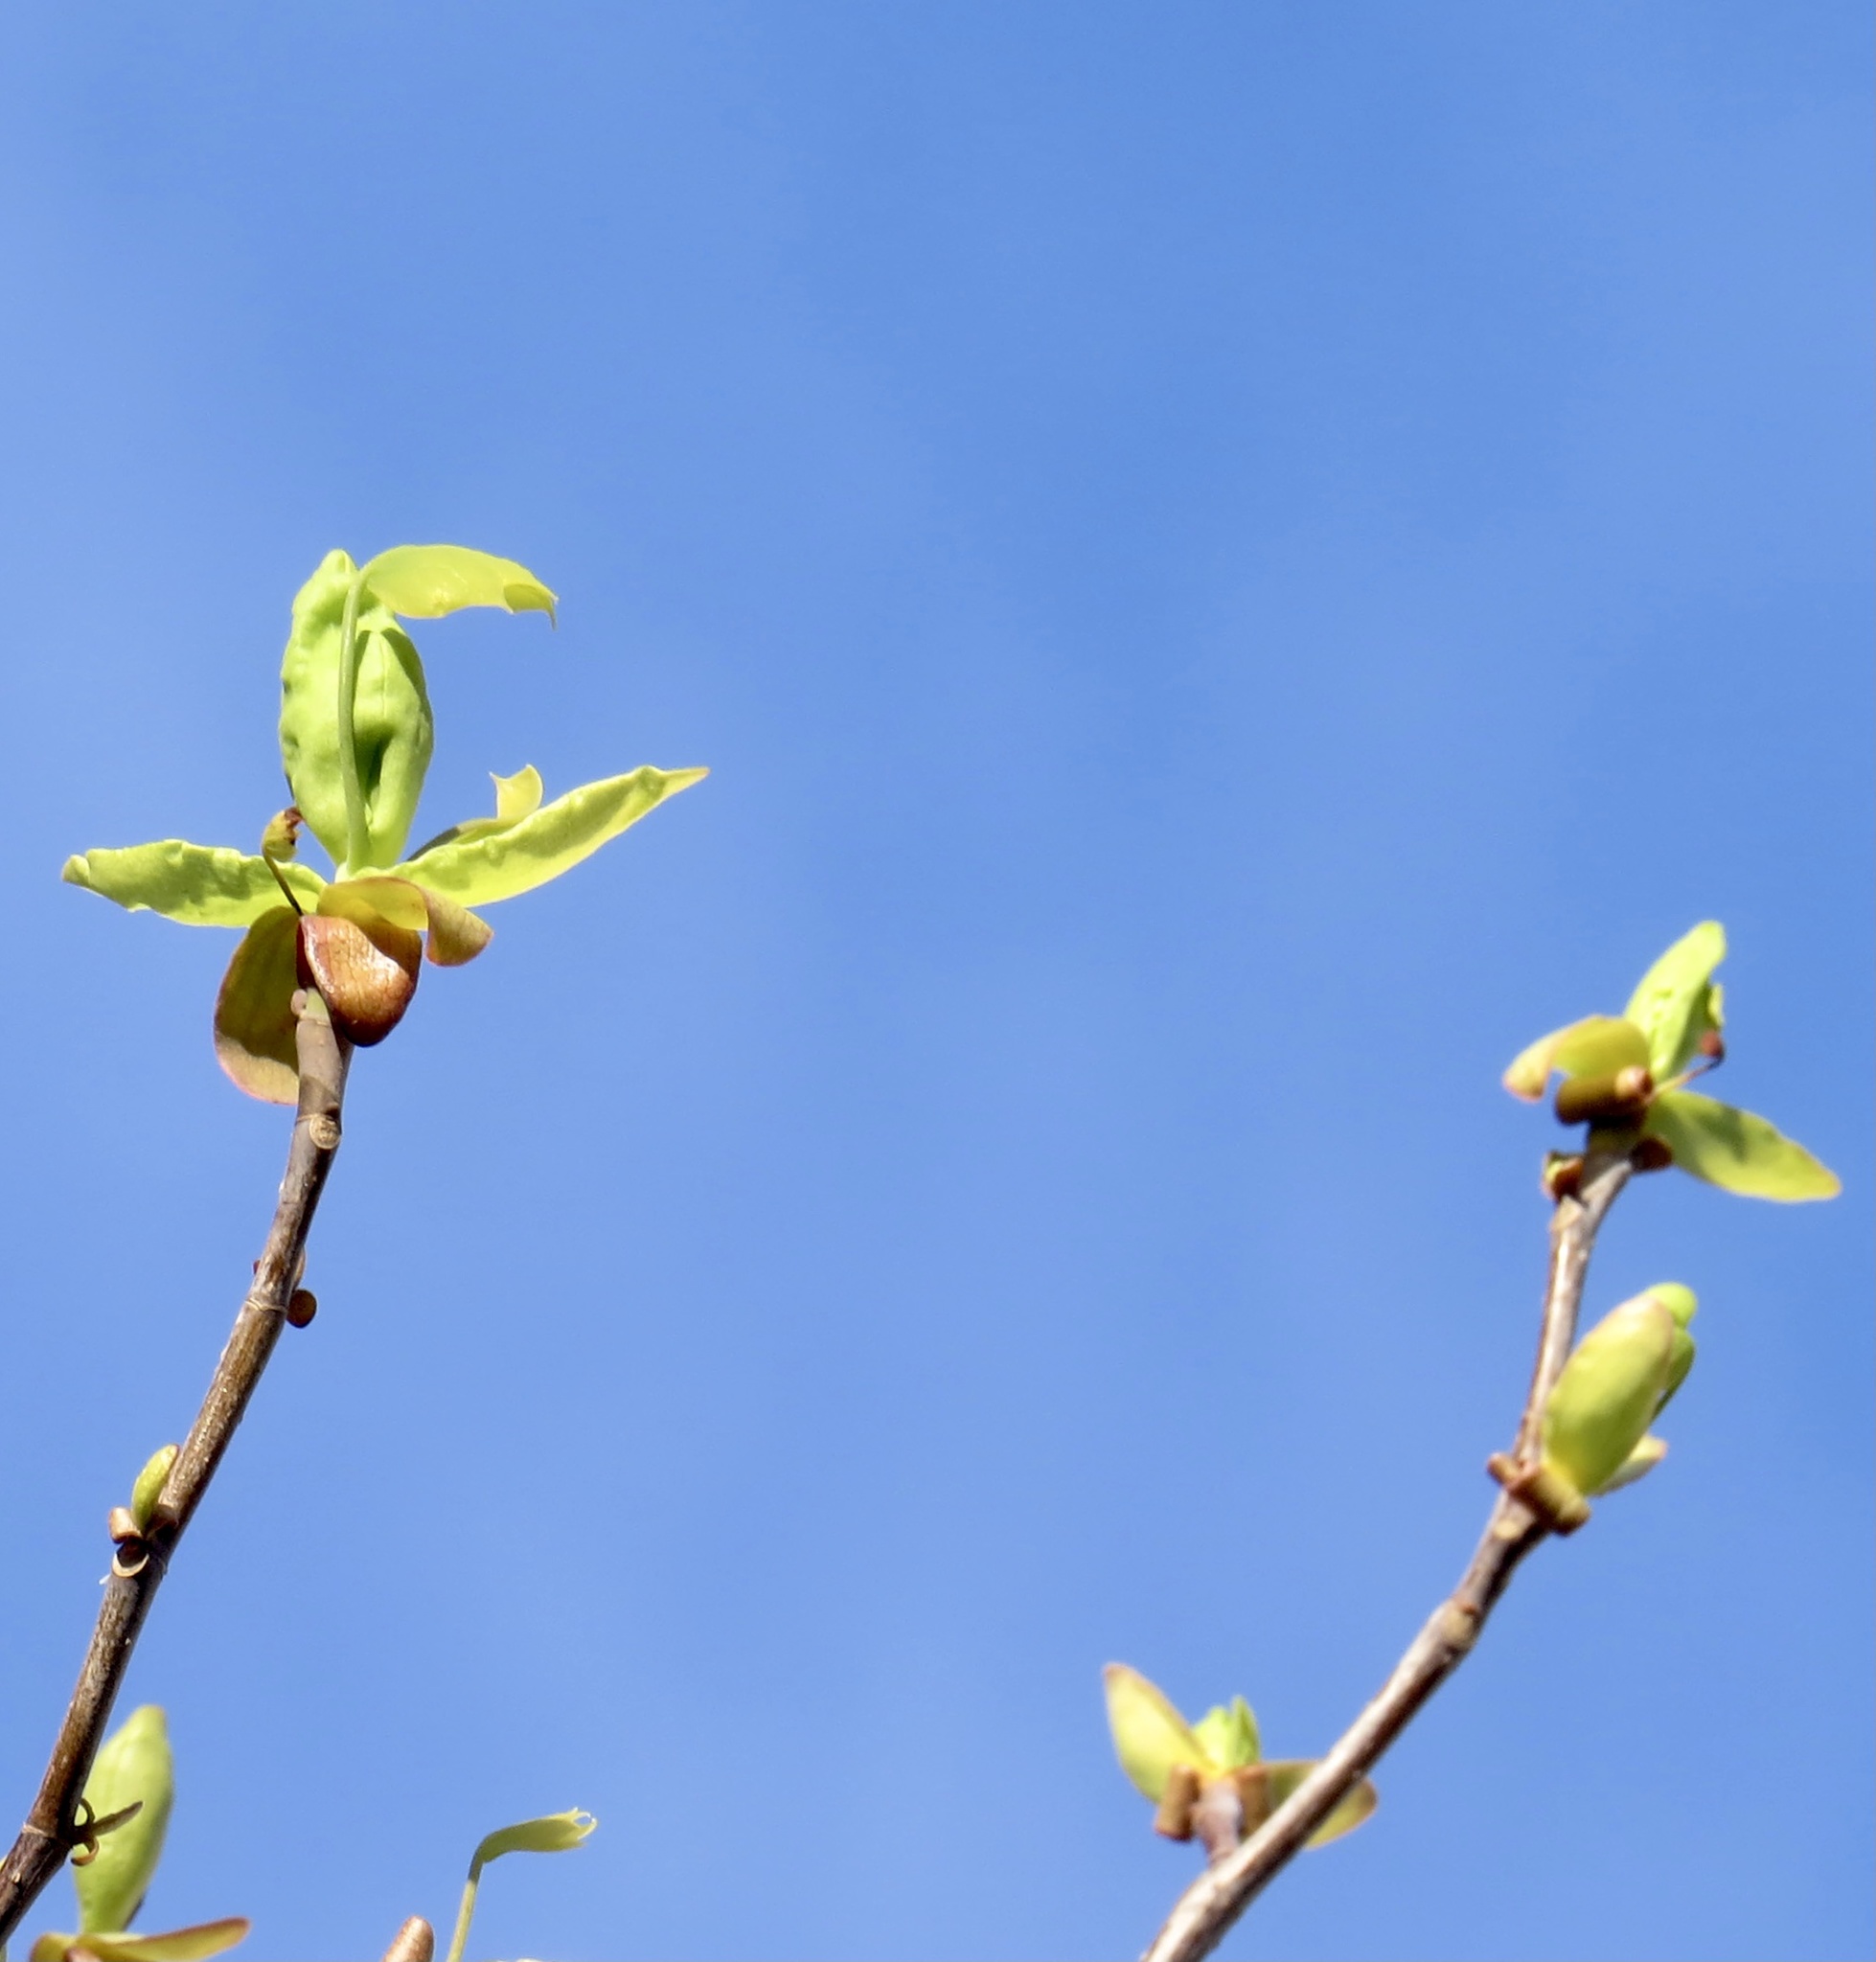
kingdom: Plantae
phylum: Tracheophyta
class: Magnoliopsida
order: Magnoliales
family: Magnoliaceae
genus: Liriodendron
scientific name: Liriodendron tulipifera
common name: Tulip tree
